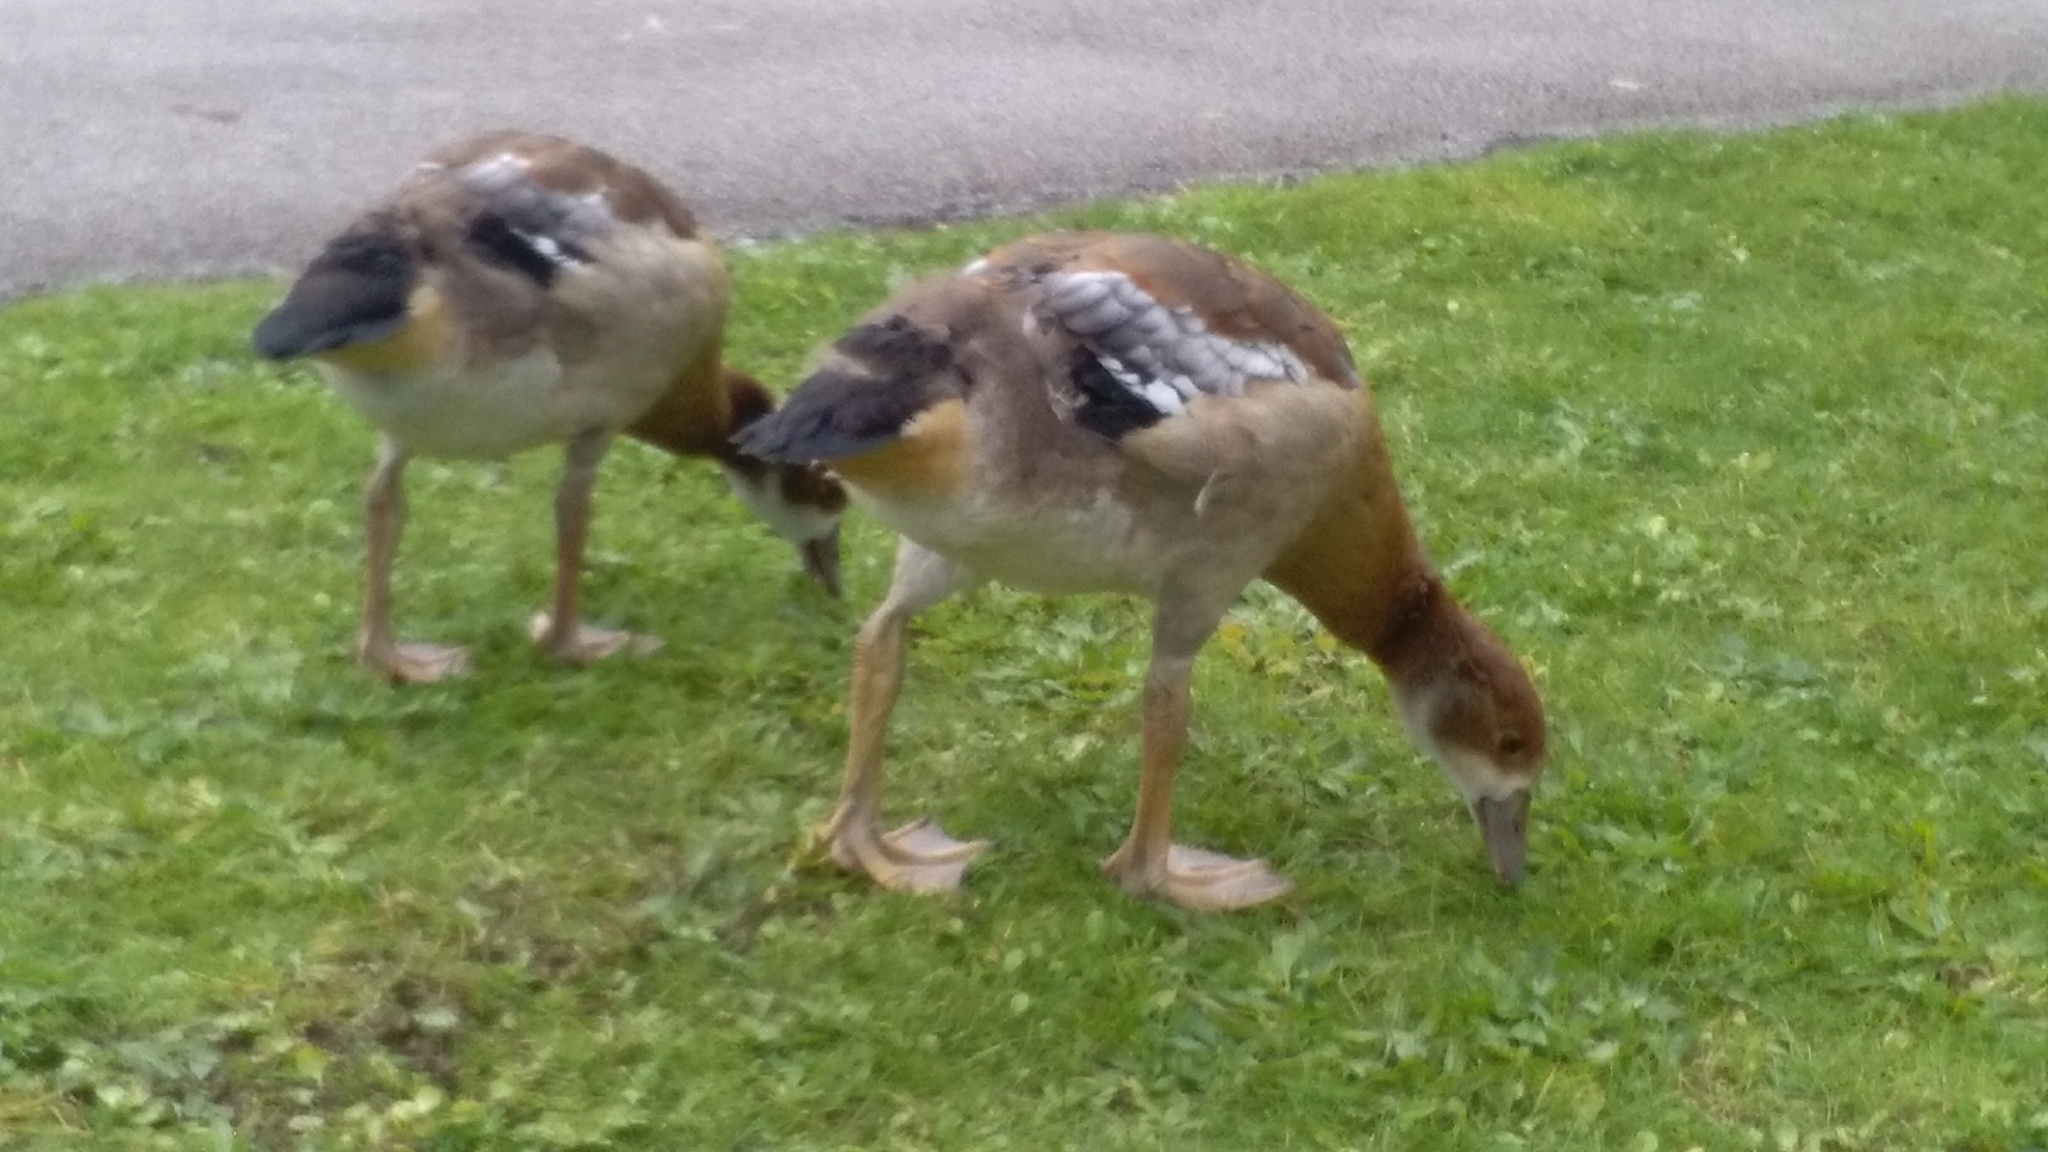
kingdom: Animalia
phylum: Chordata
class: Aves
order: Anseriformes
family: Anatidae
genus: Alopochen
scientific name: Alopochen aegyptiaca
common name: Egyptian goose
